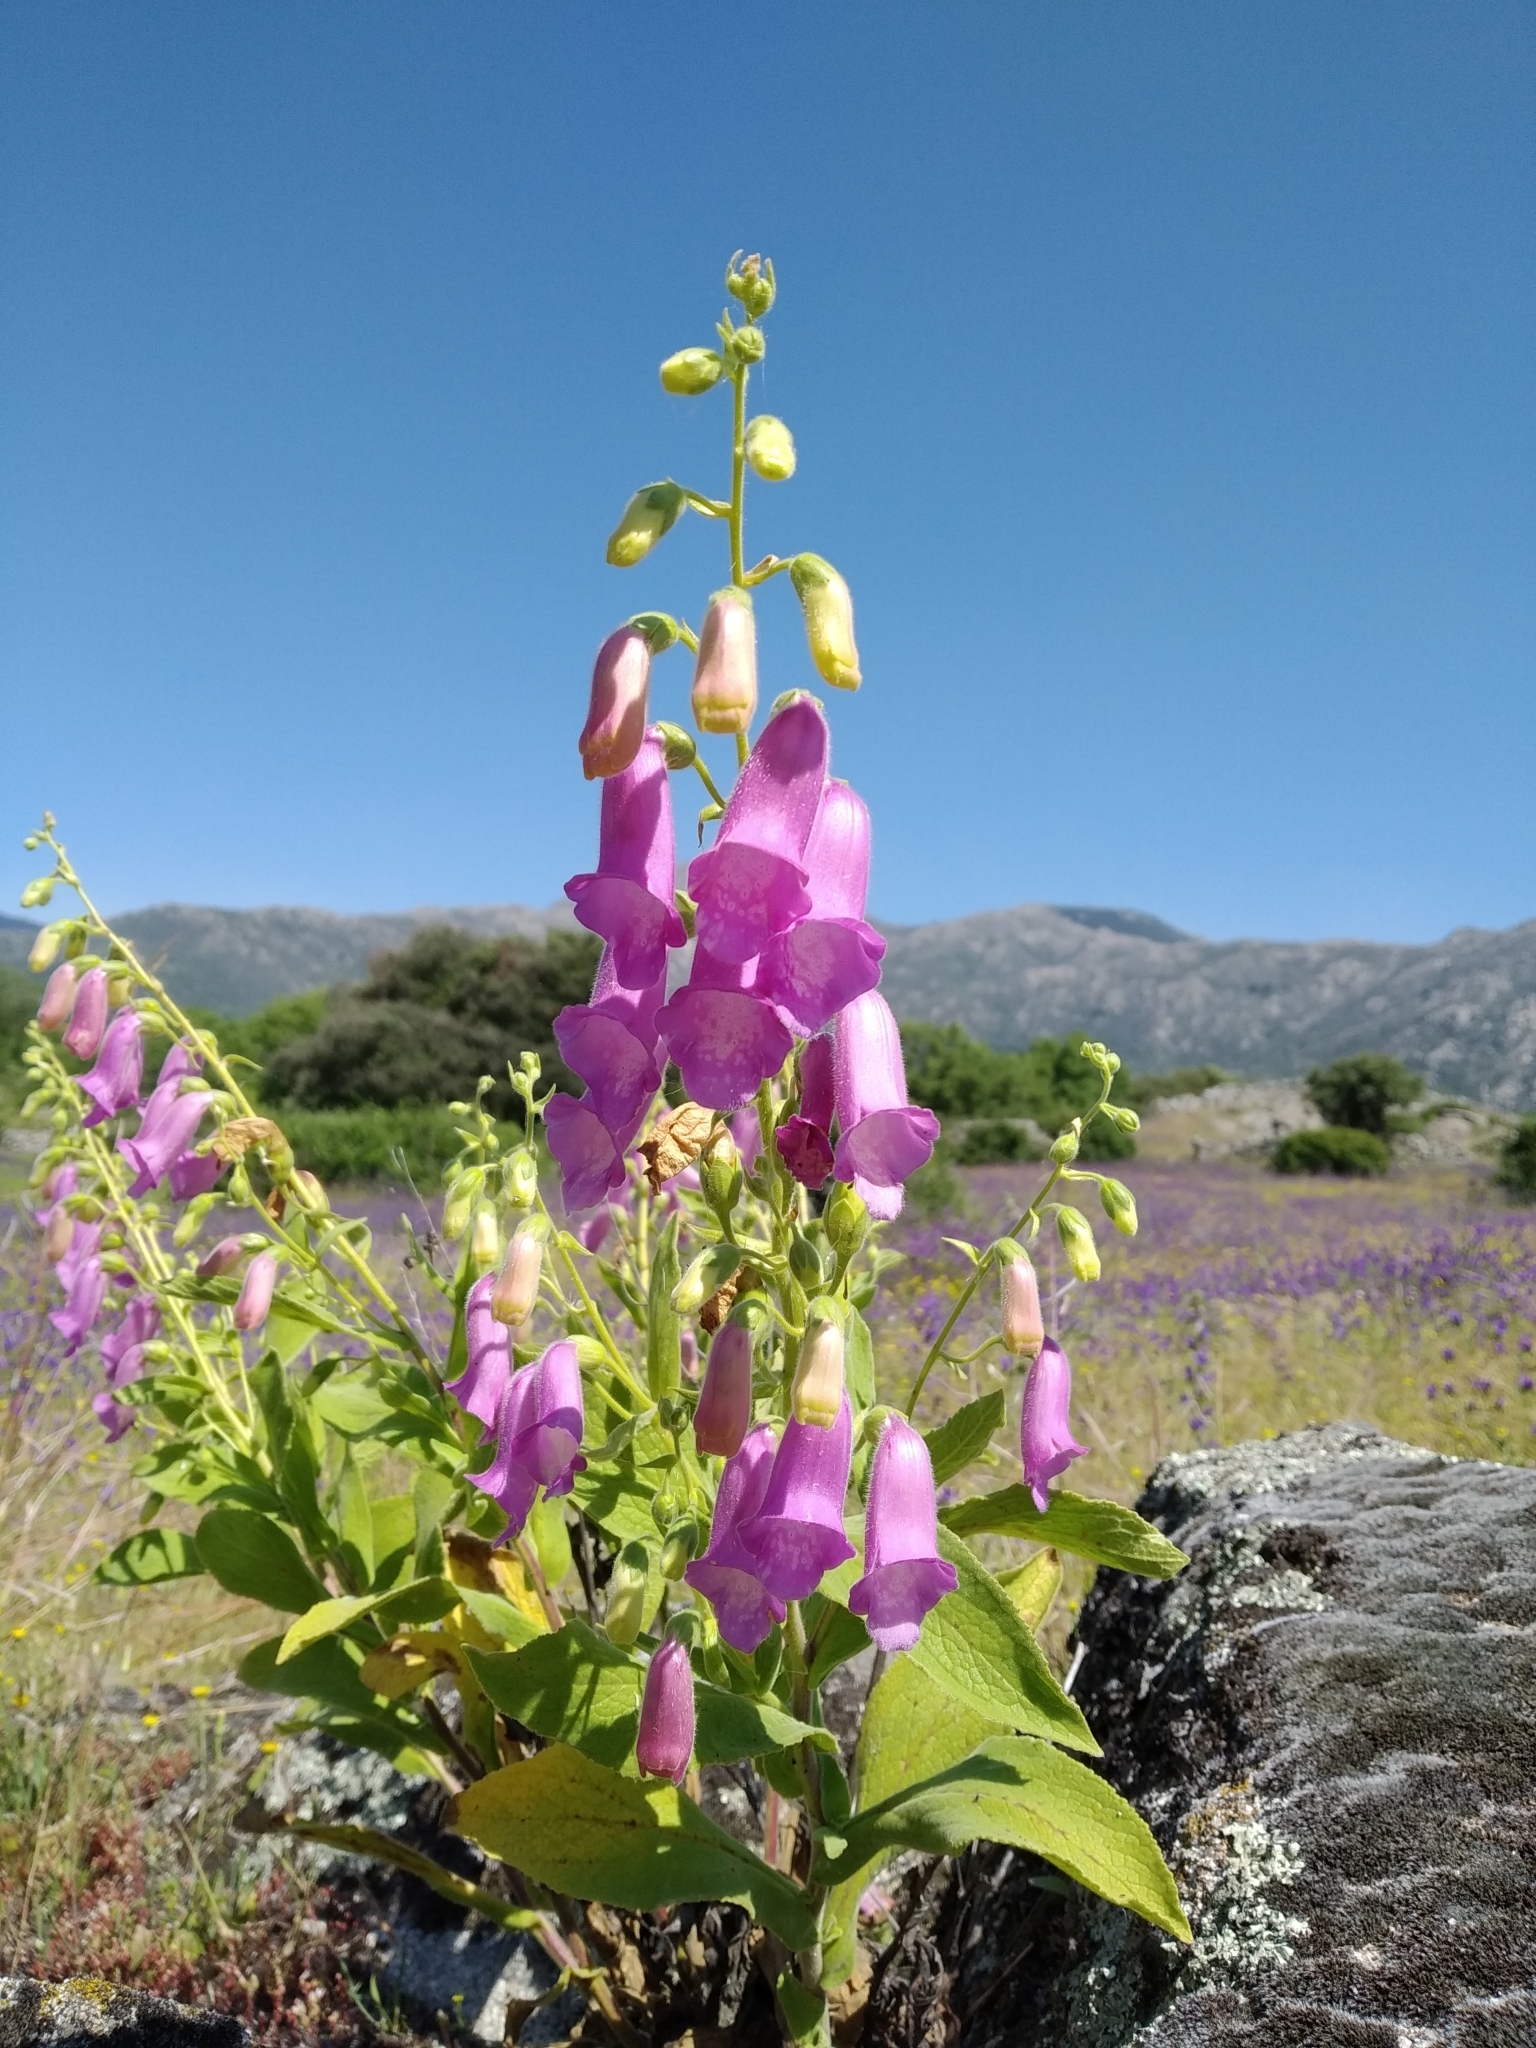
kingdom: Plantae
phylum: Tracheophyta
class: Magnoliopsida
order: Lamiales
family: Plantaginaceae
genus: Digitalis
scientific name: Digitalis thapsi
